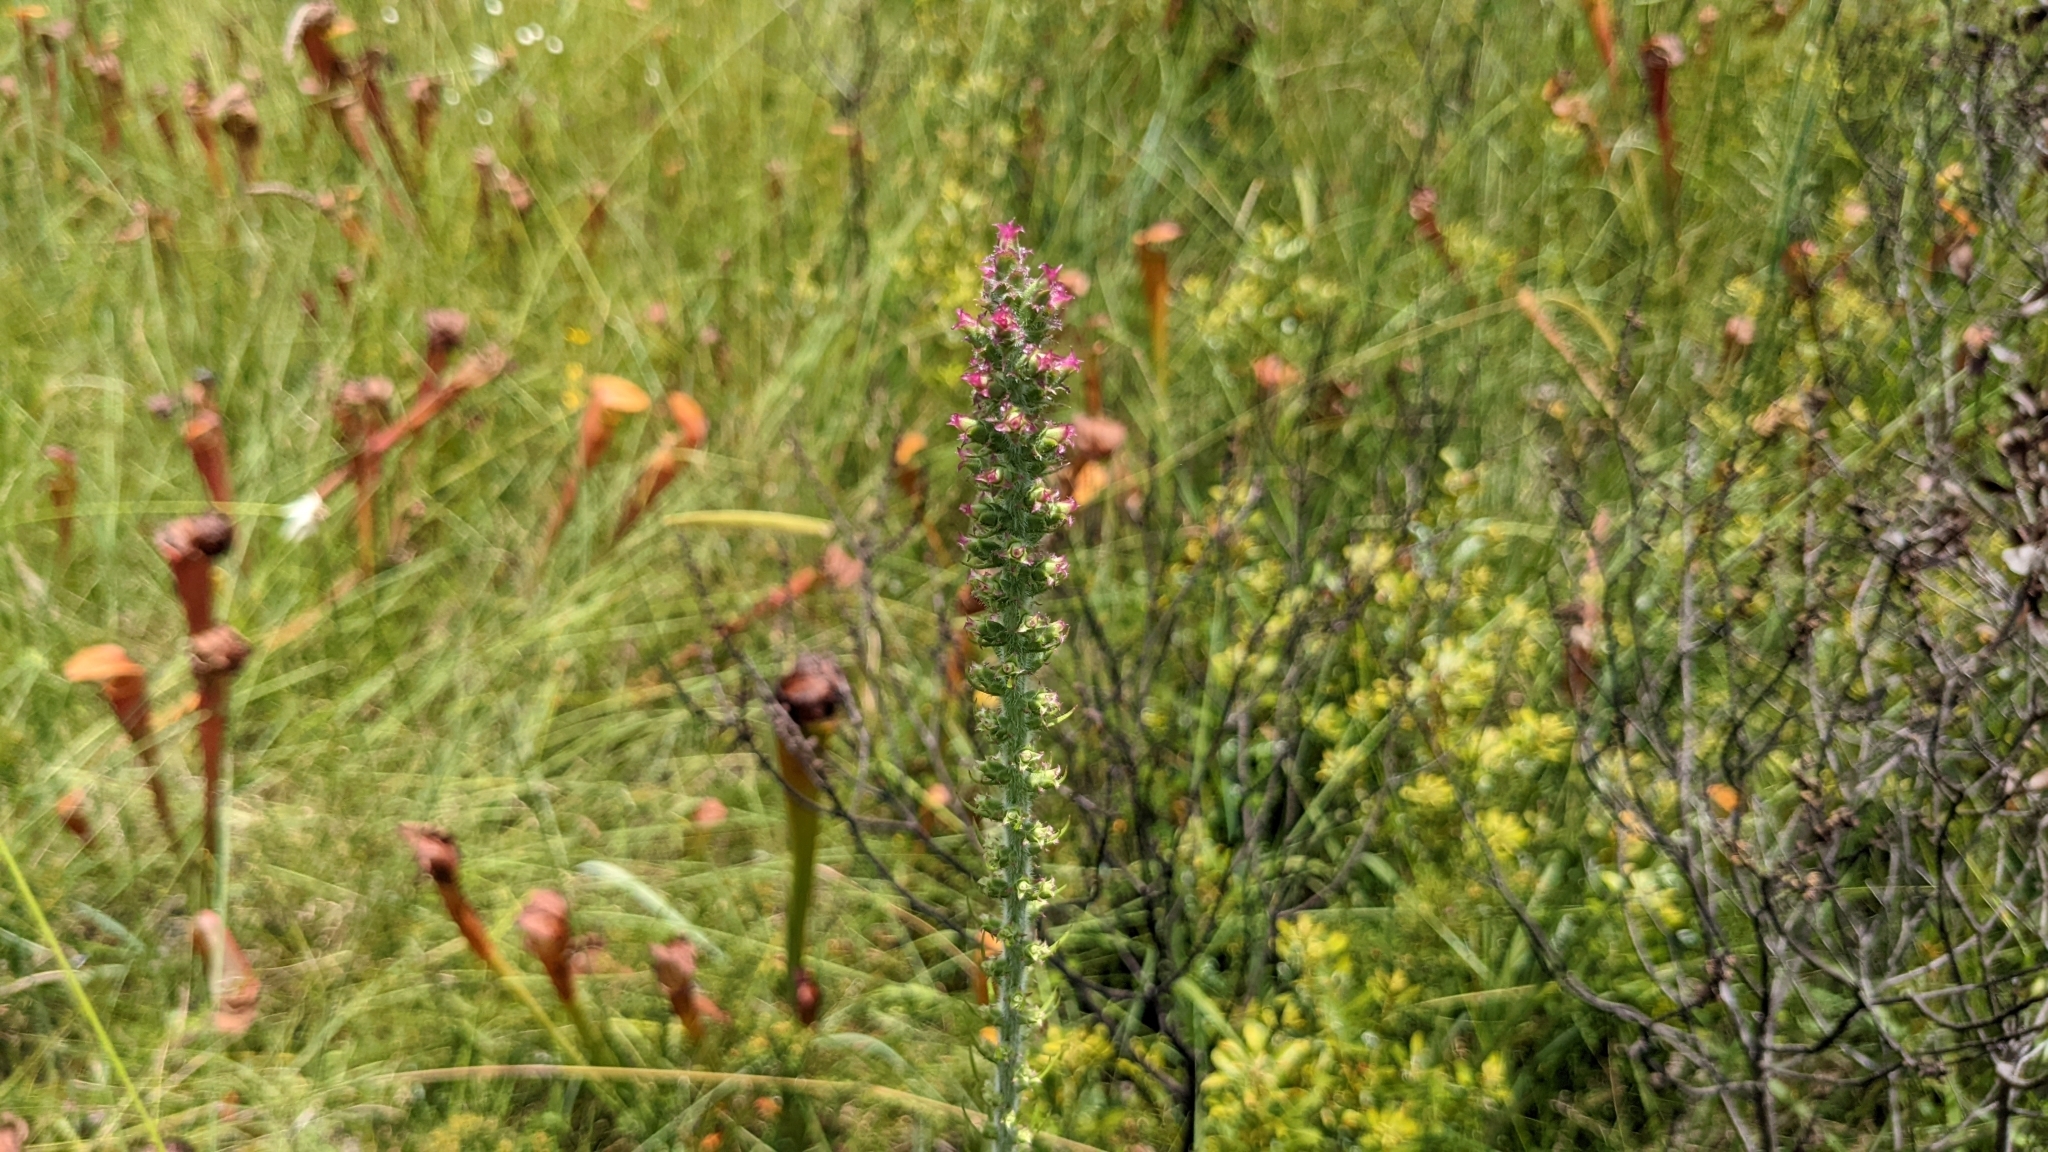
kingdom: Plantae
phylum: Tracheophyta
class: Magnoliopsida
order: Asterales
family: Asteraceae
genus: Liatris
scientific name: Liatris pycnostachya
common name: Cattail gayfeather
